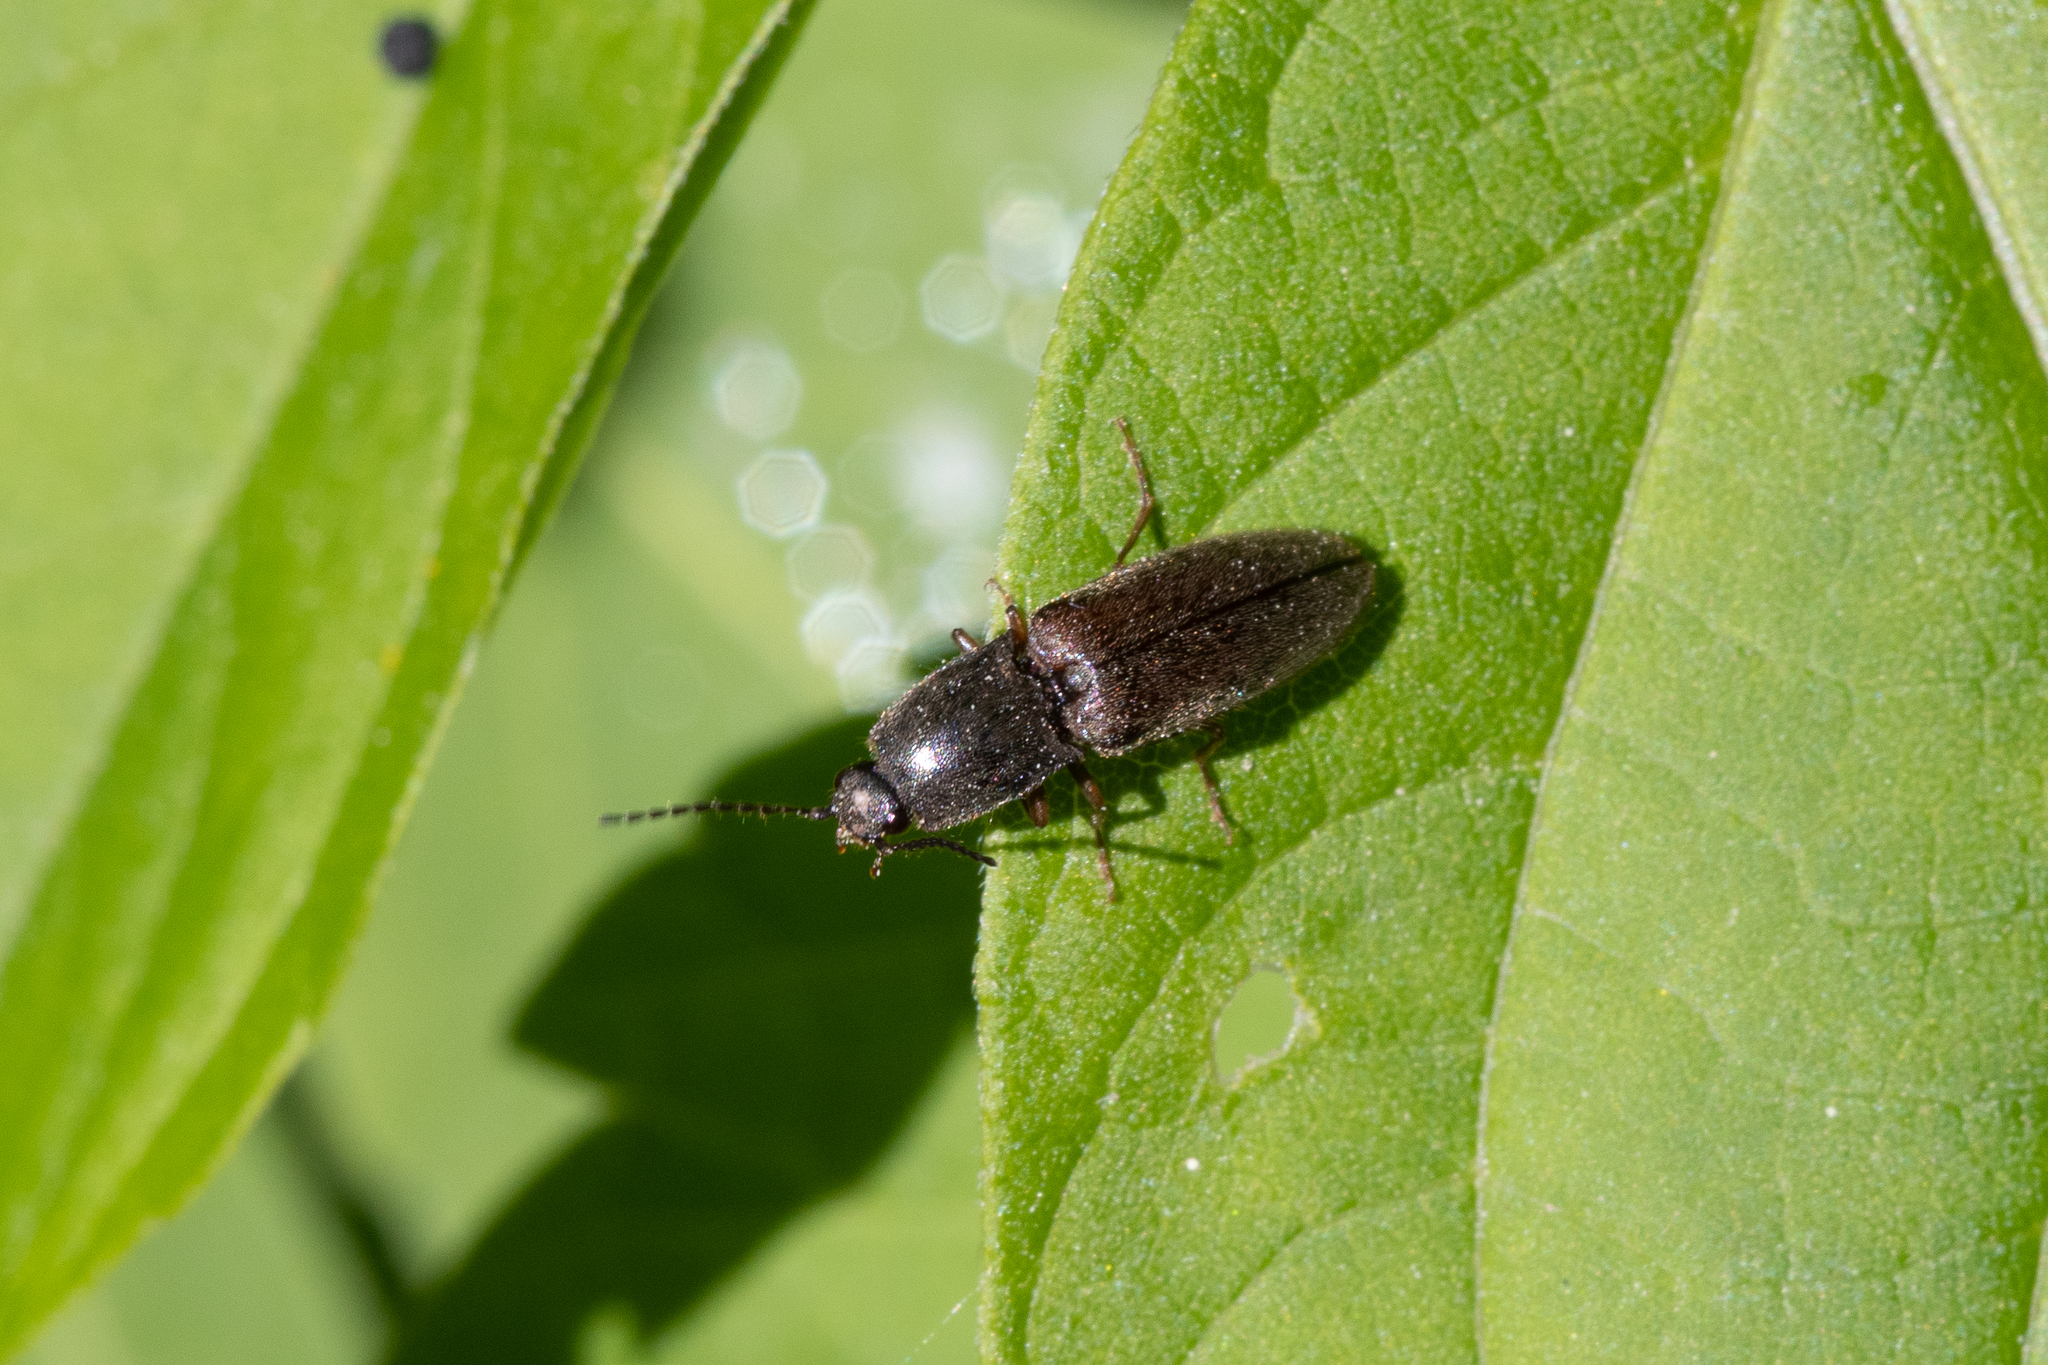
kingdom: Animalia
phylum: Arthropoda
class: Insecta
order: Coleoptera
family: Elateridae
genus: Athous
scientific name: Athous haemorrhoidalis
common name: Red-brown click beetle
